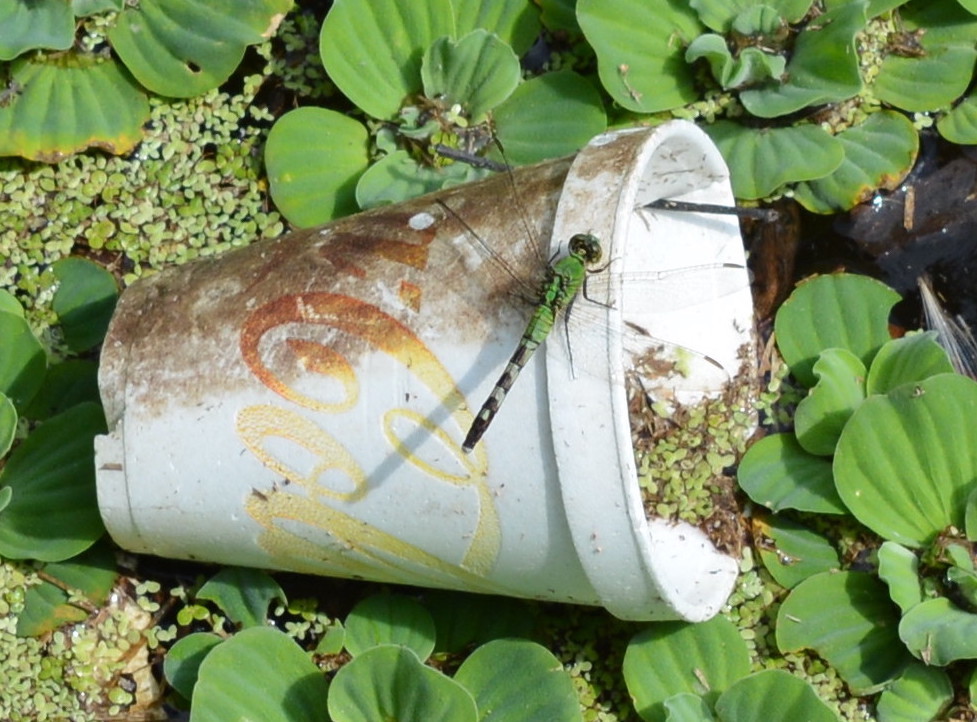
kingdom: Animalia
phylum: Arthropoda
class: Insecta
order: Odonata
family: Libellulidae
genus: Erythemis
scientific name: Erythemis simplicicollis
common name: Eastern pondhawk
